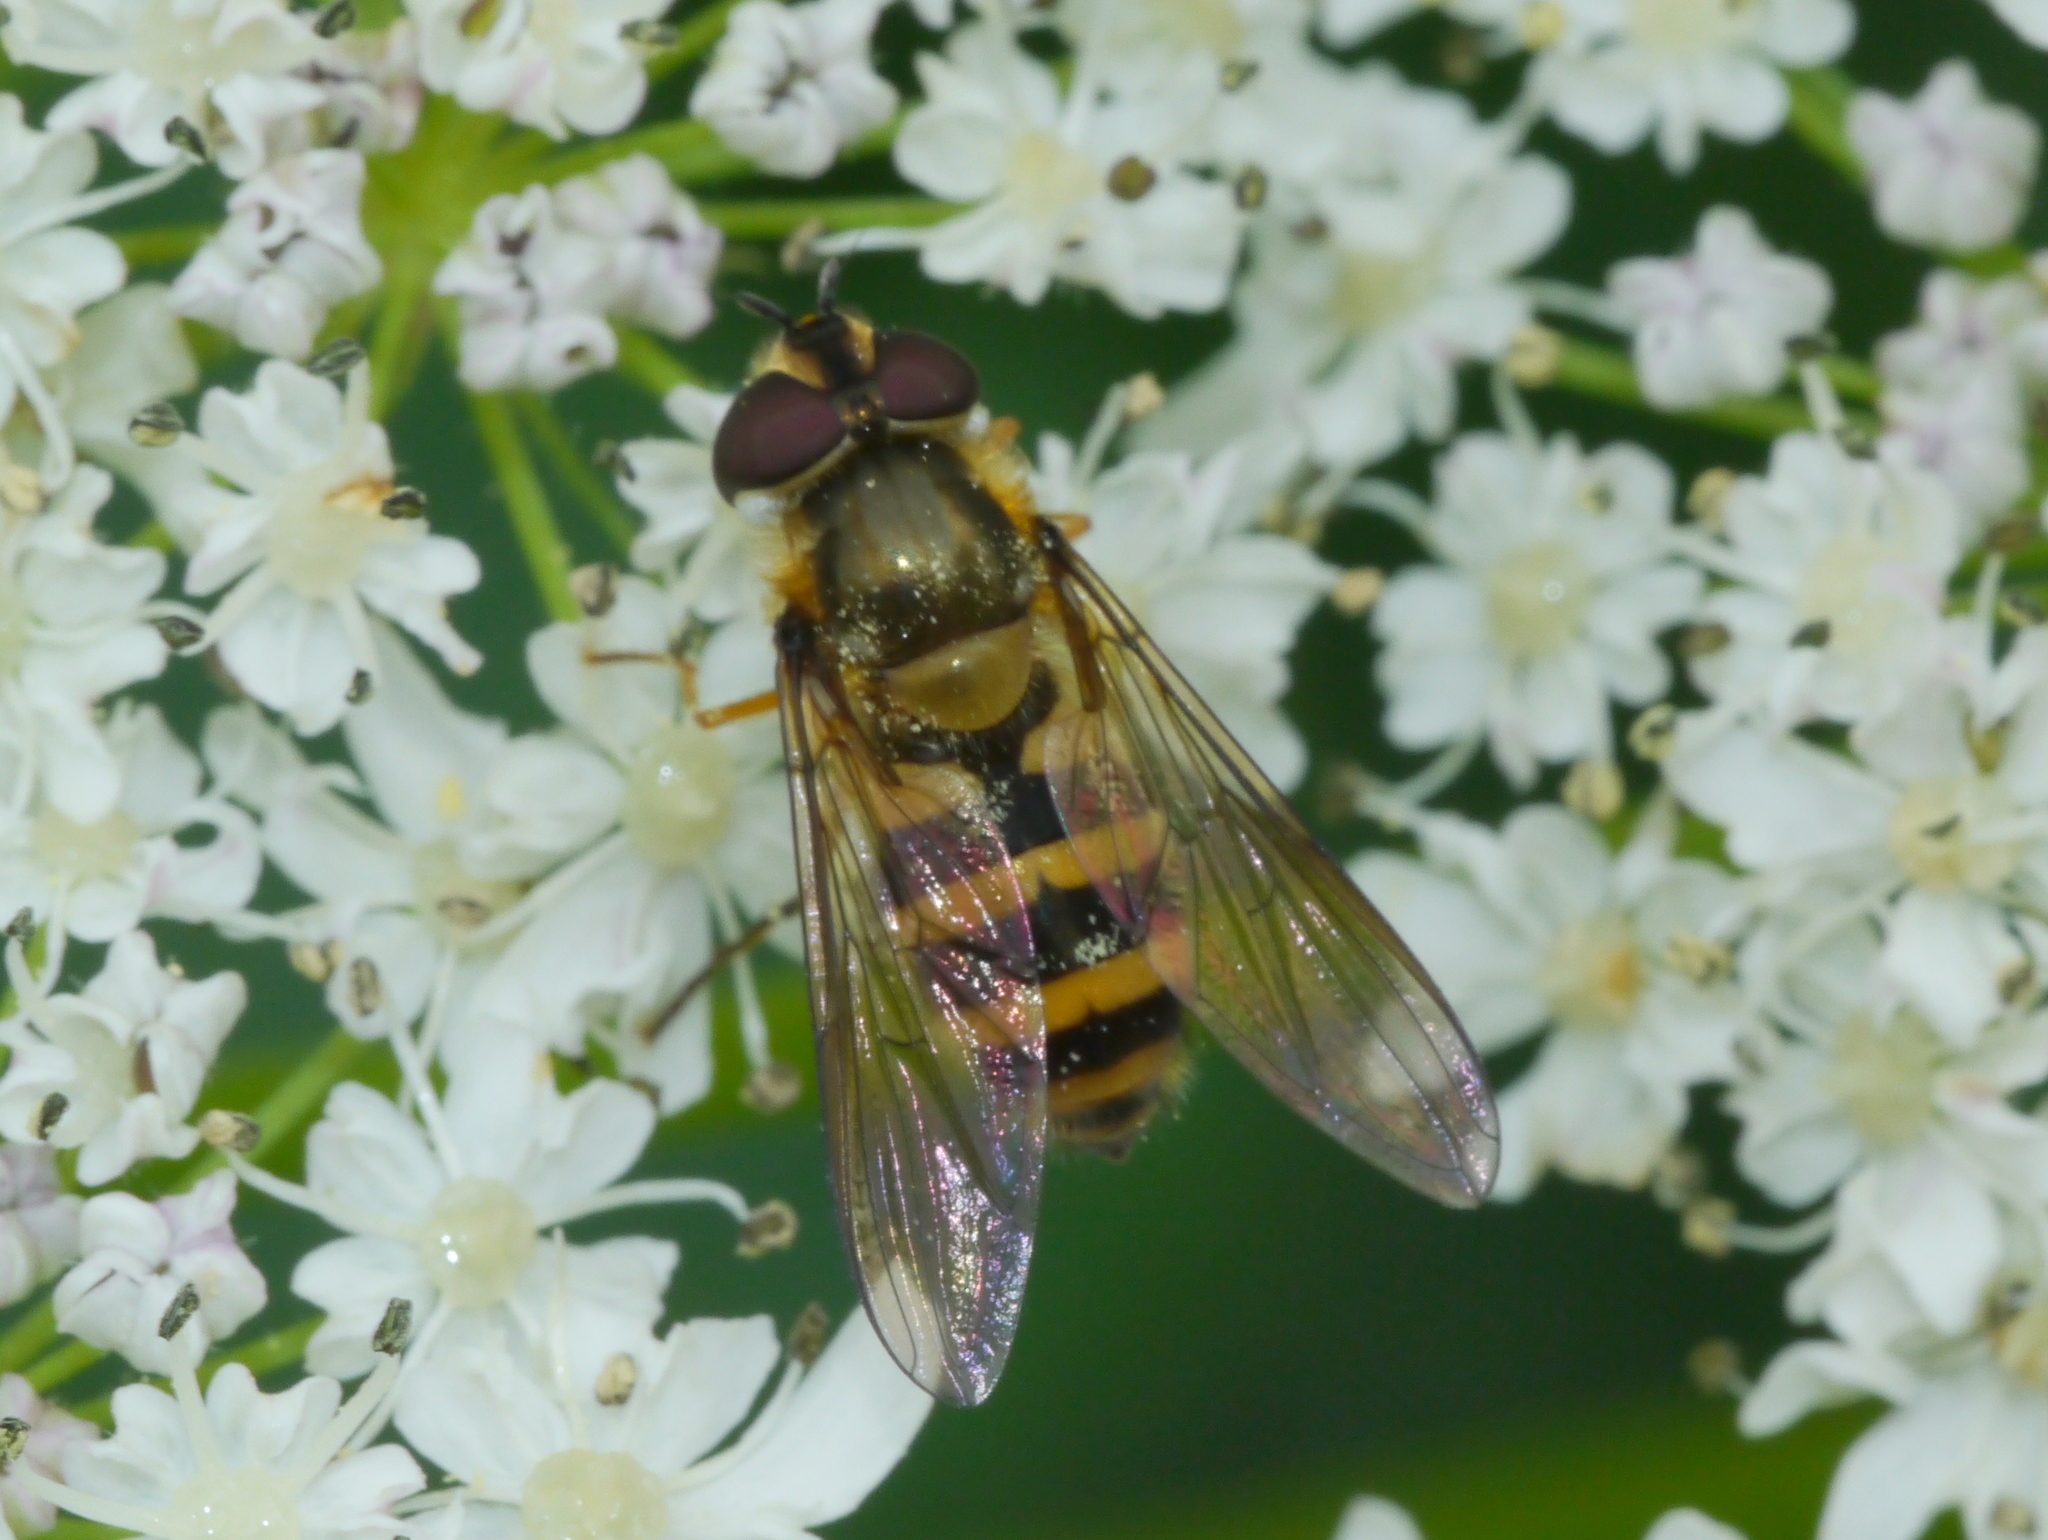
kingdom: Animalia
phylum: Arthropoda
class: Insecta
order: Diptera
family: Syrphidae
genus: Epistrophe
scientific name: Epistrophe grossulariae
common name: Black-horned smoothtail
